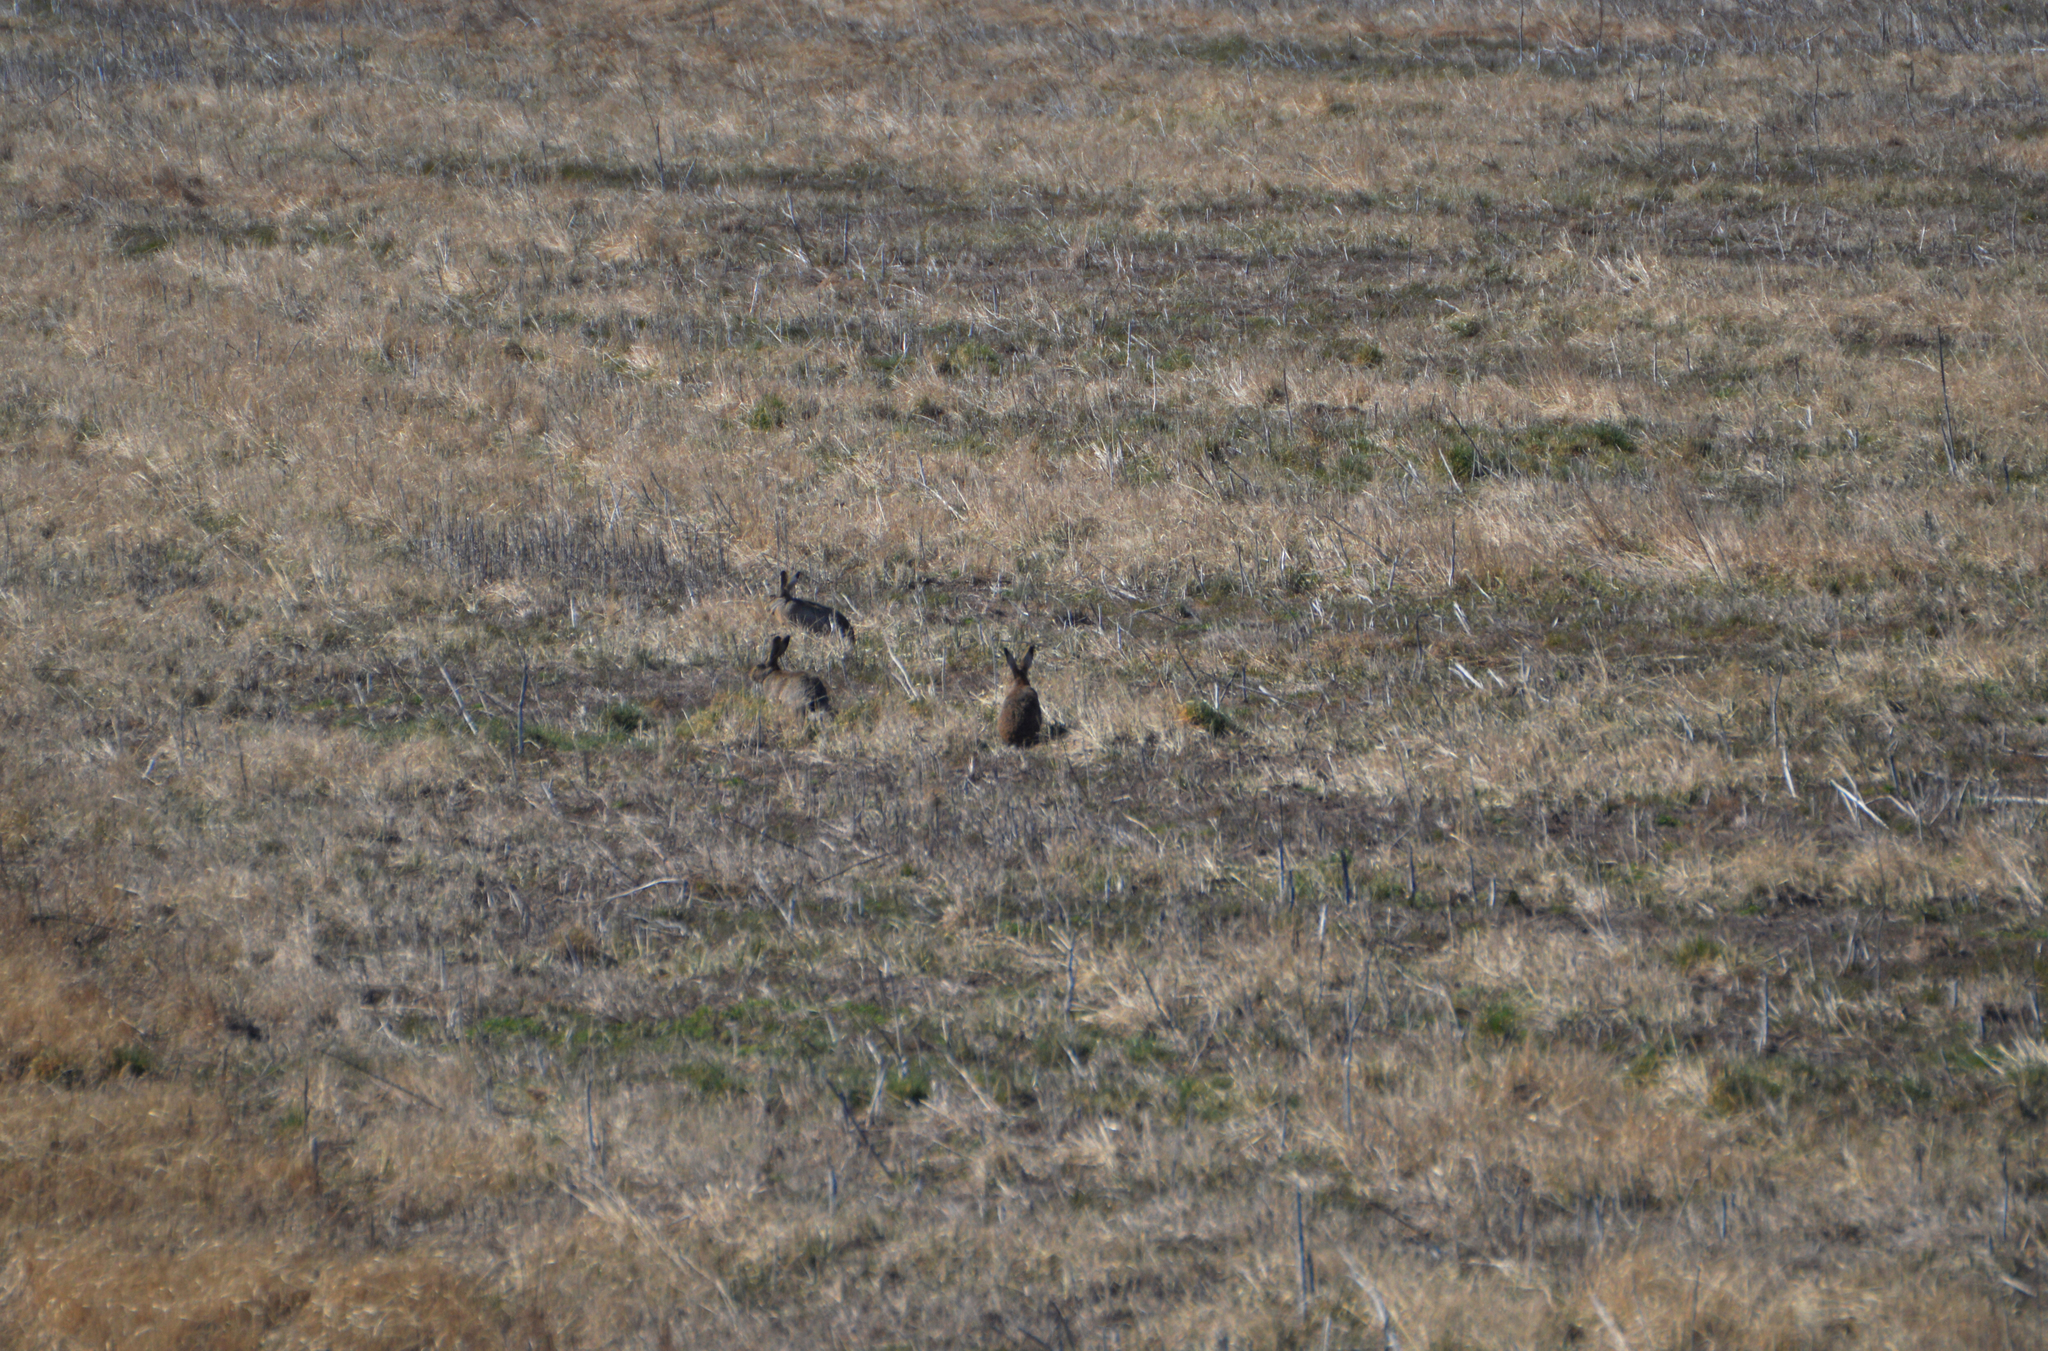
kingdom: Animalia
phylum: Chordata
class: Mammalia
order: Lagomorpha
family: Leporidae
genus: Lepus
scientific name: Lepus europaeus
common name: European hare
